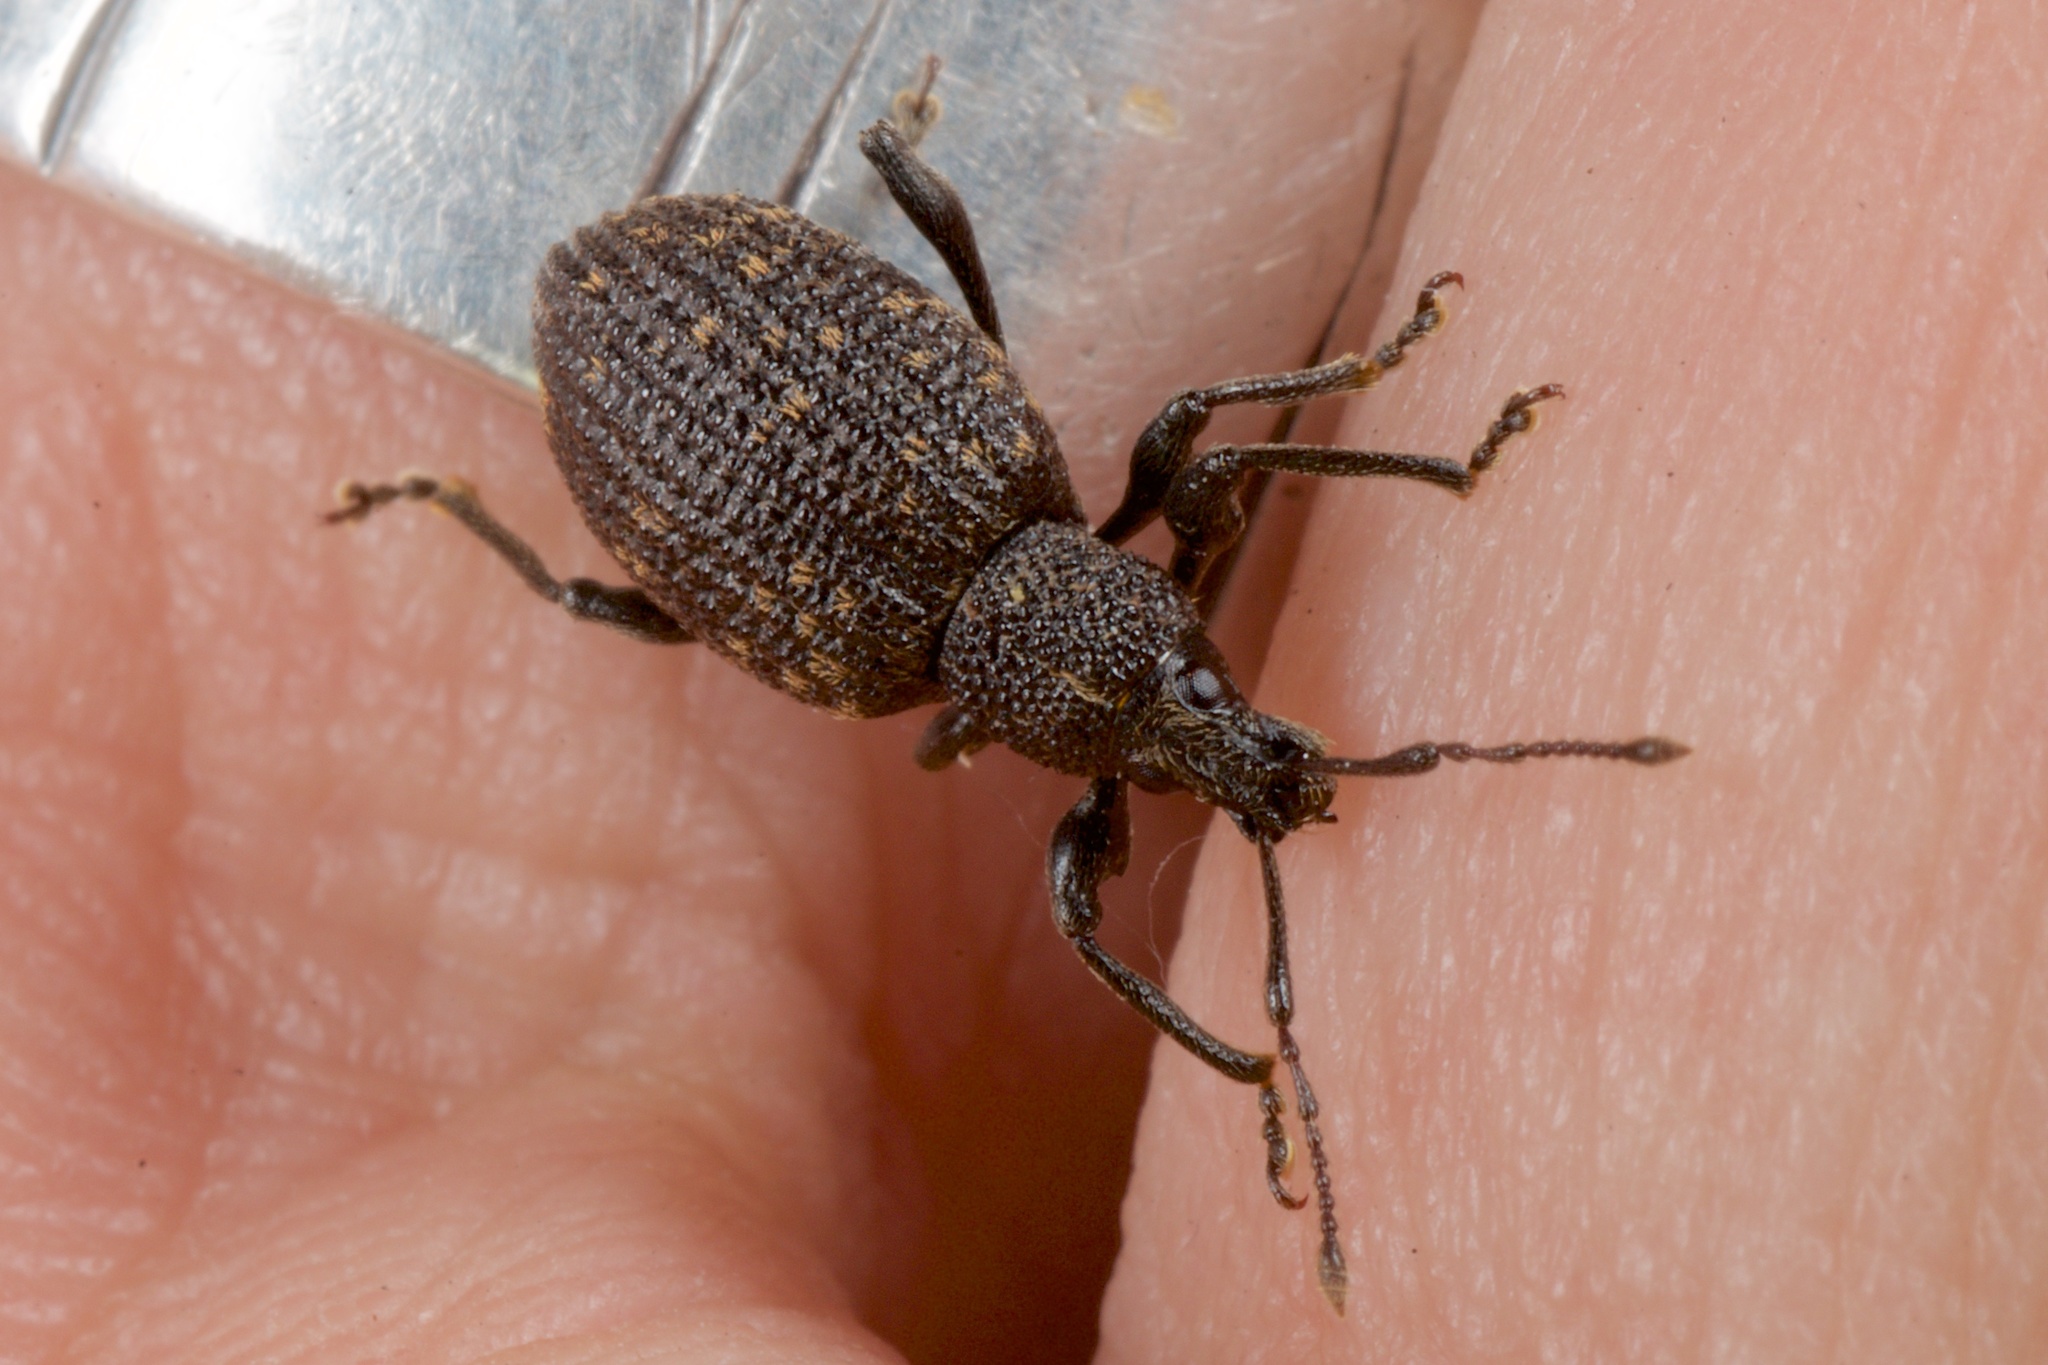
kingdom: Animalia
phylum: Arthropoda
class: Insecta
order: Coleoptera
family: Curculionidae
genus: Otiorhynchus
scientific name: Otiorhynchus sulcatus
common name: Black vine weevil
